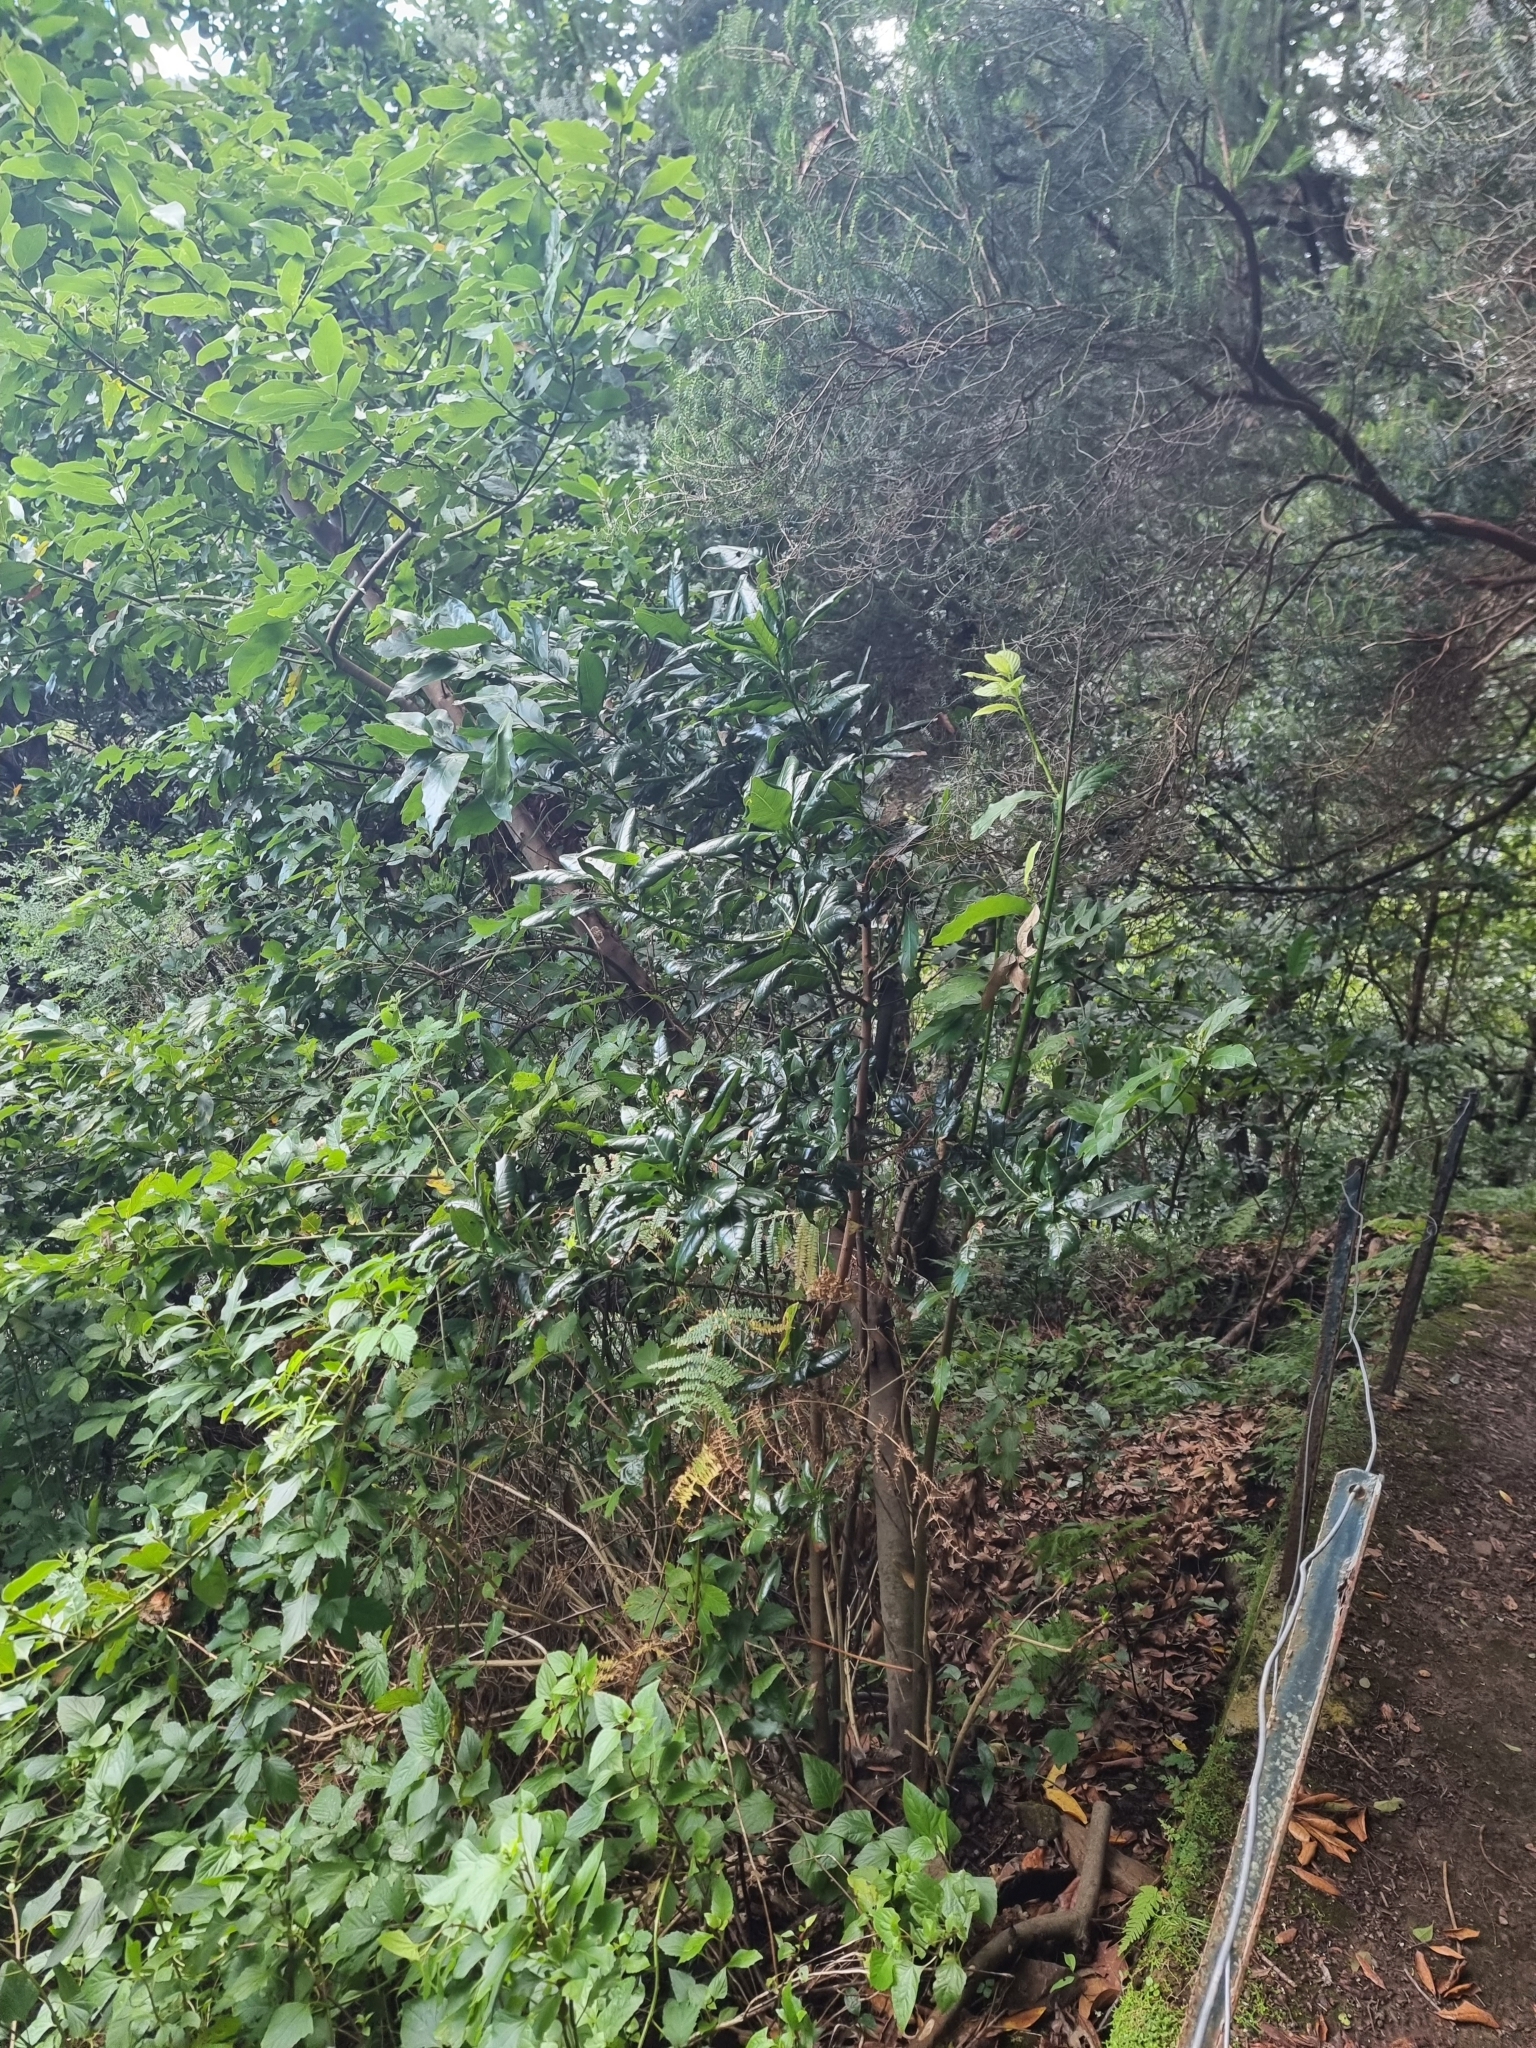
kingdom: Plantae
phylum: Tracheophyta
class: Magnoliopsida
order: Laurales
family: Lauraceae
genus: Apollonias
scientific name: Apollonias barbujana
